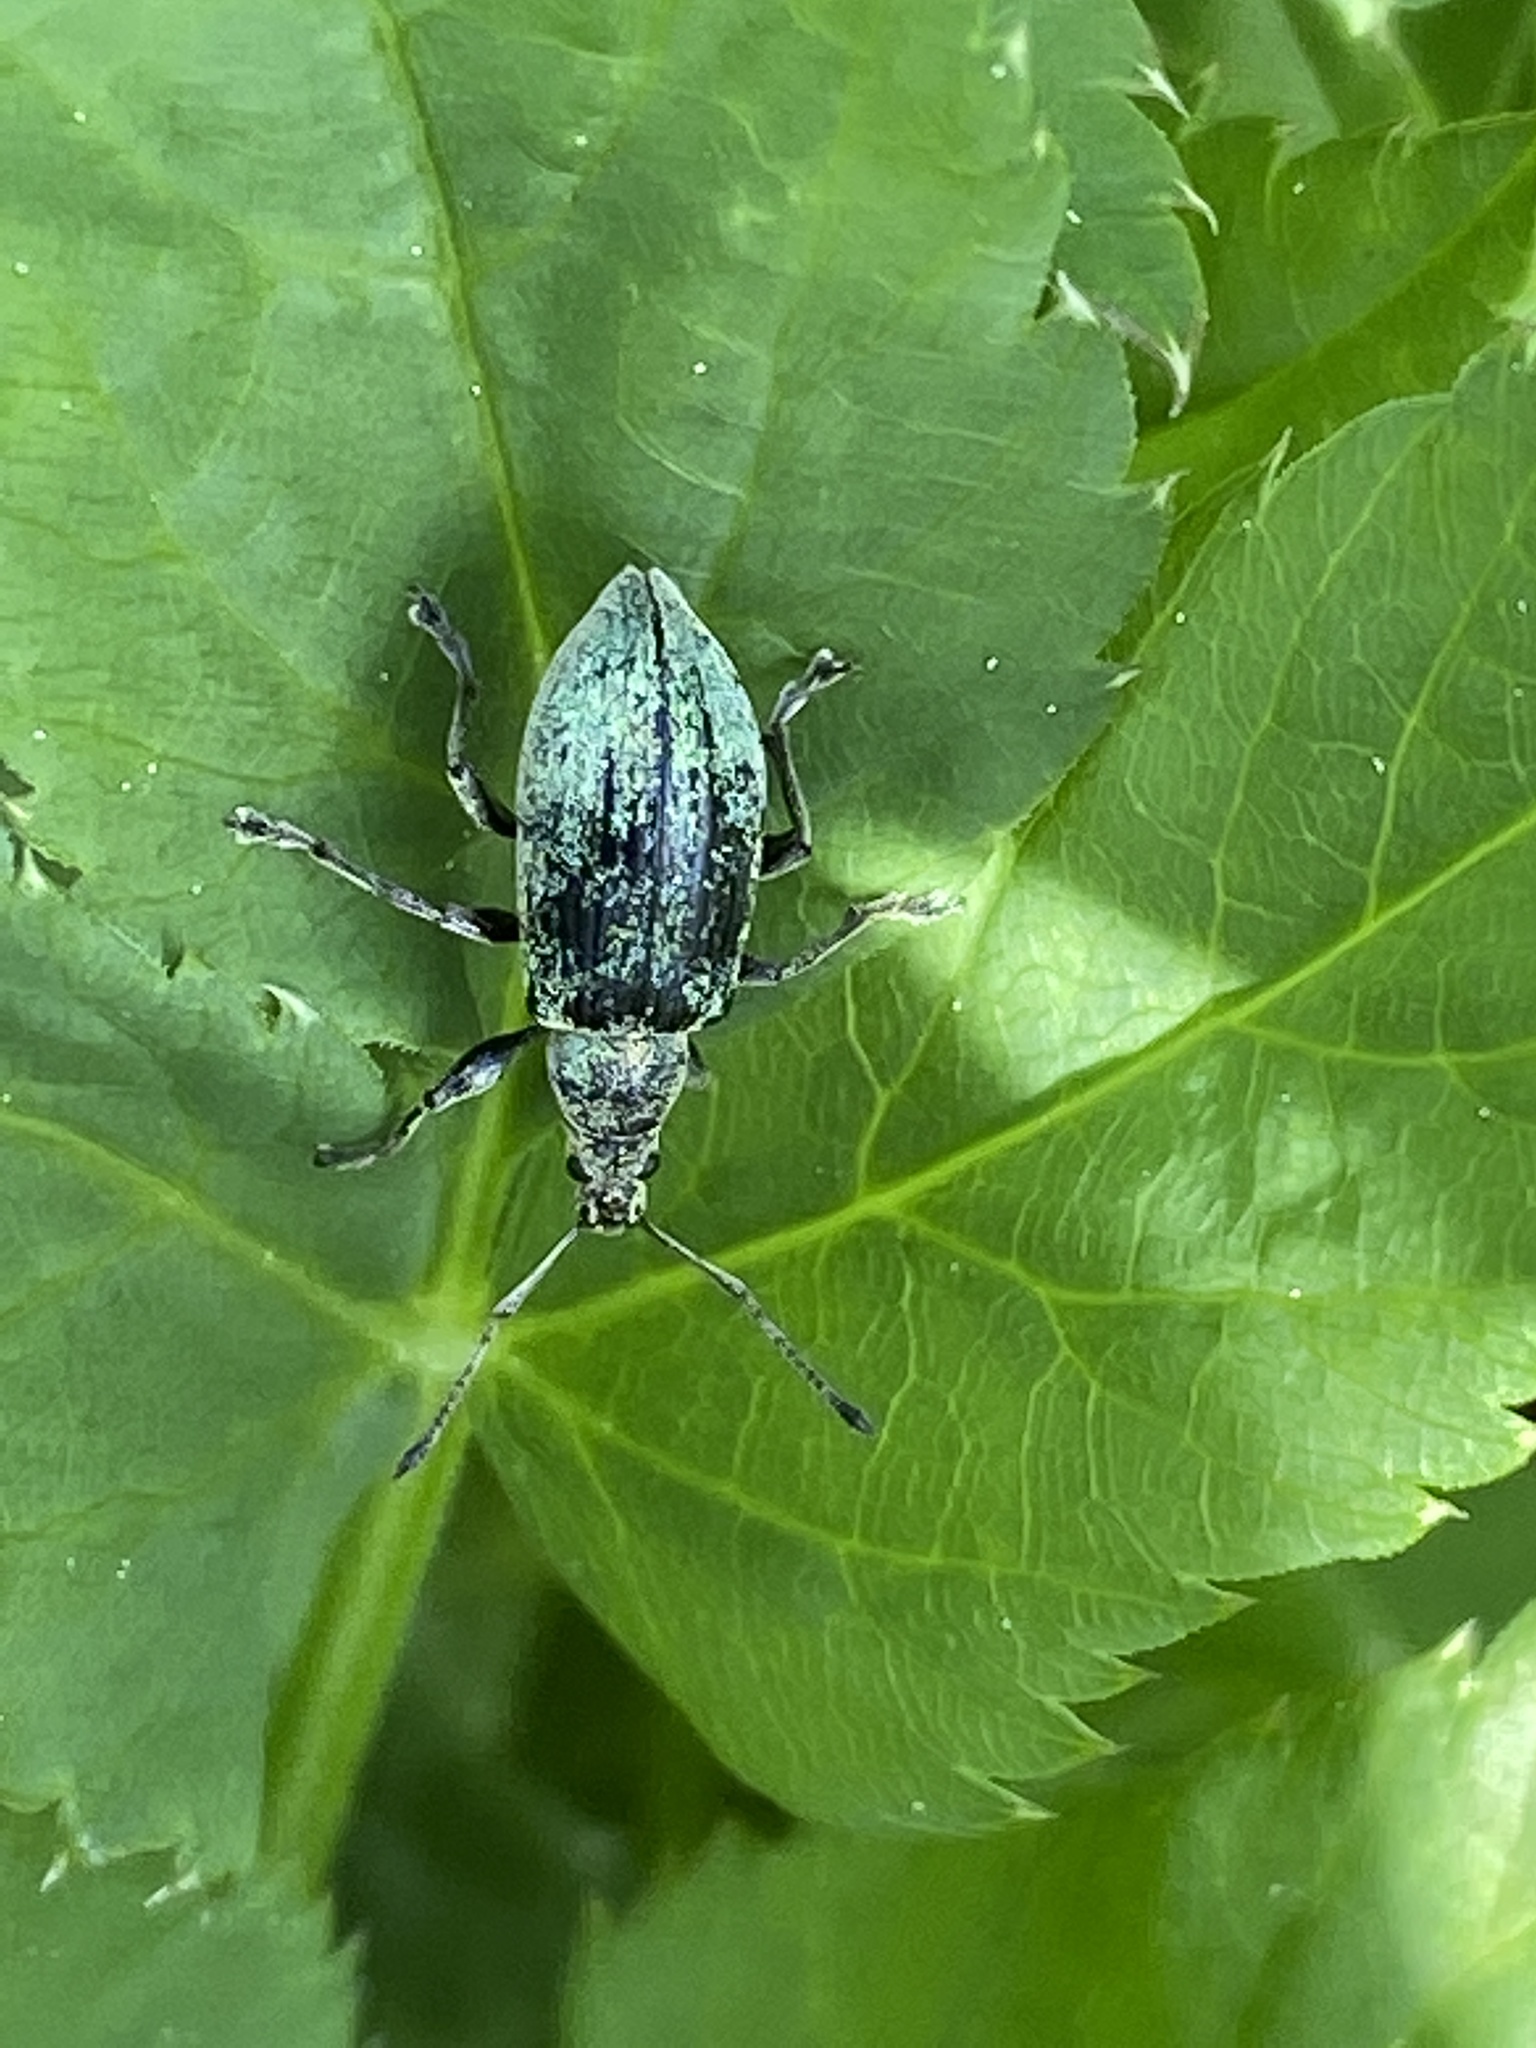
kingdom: Animalia
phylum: Arthropoda
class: Insecta
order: Coleoptera
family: Curculionidae
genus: Phyllobius
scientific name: Phyllobius pomaceus
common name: Green nettle weevil
